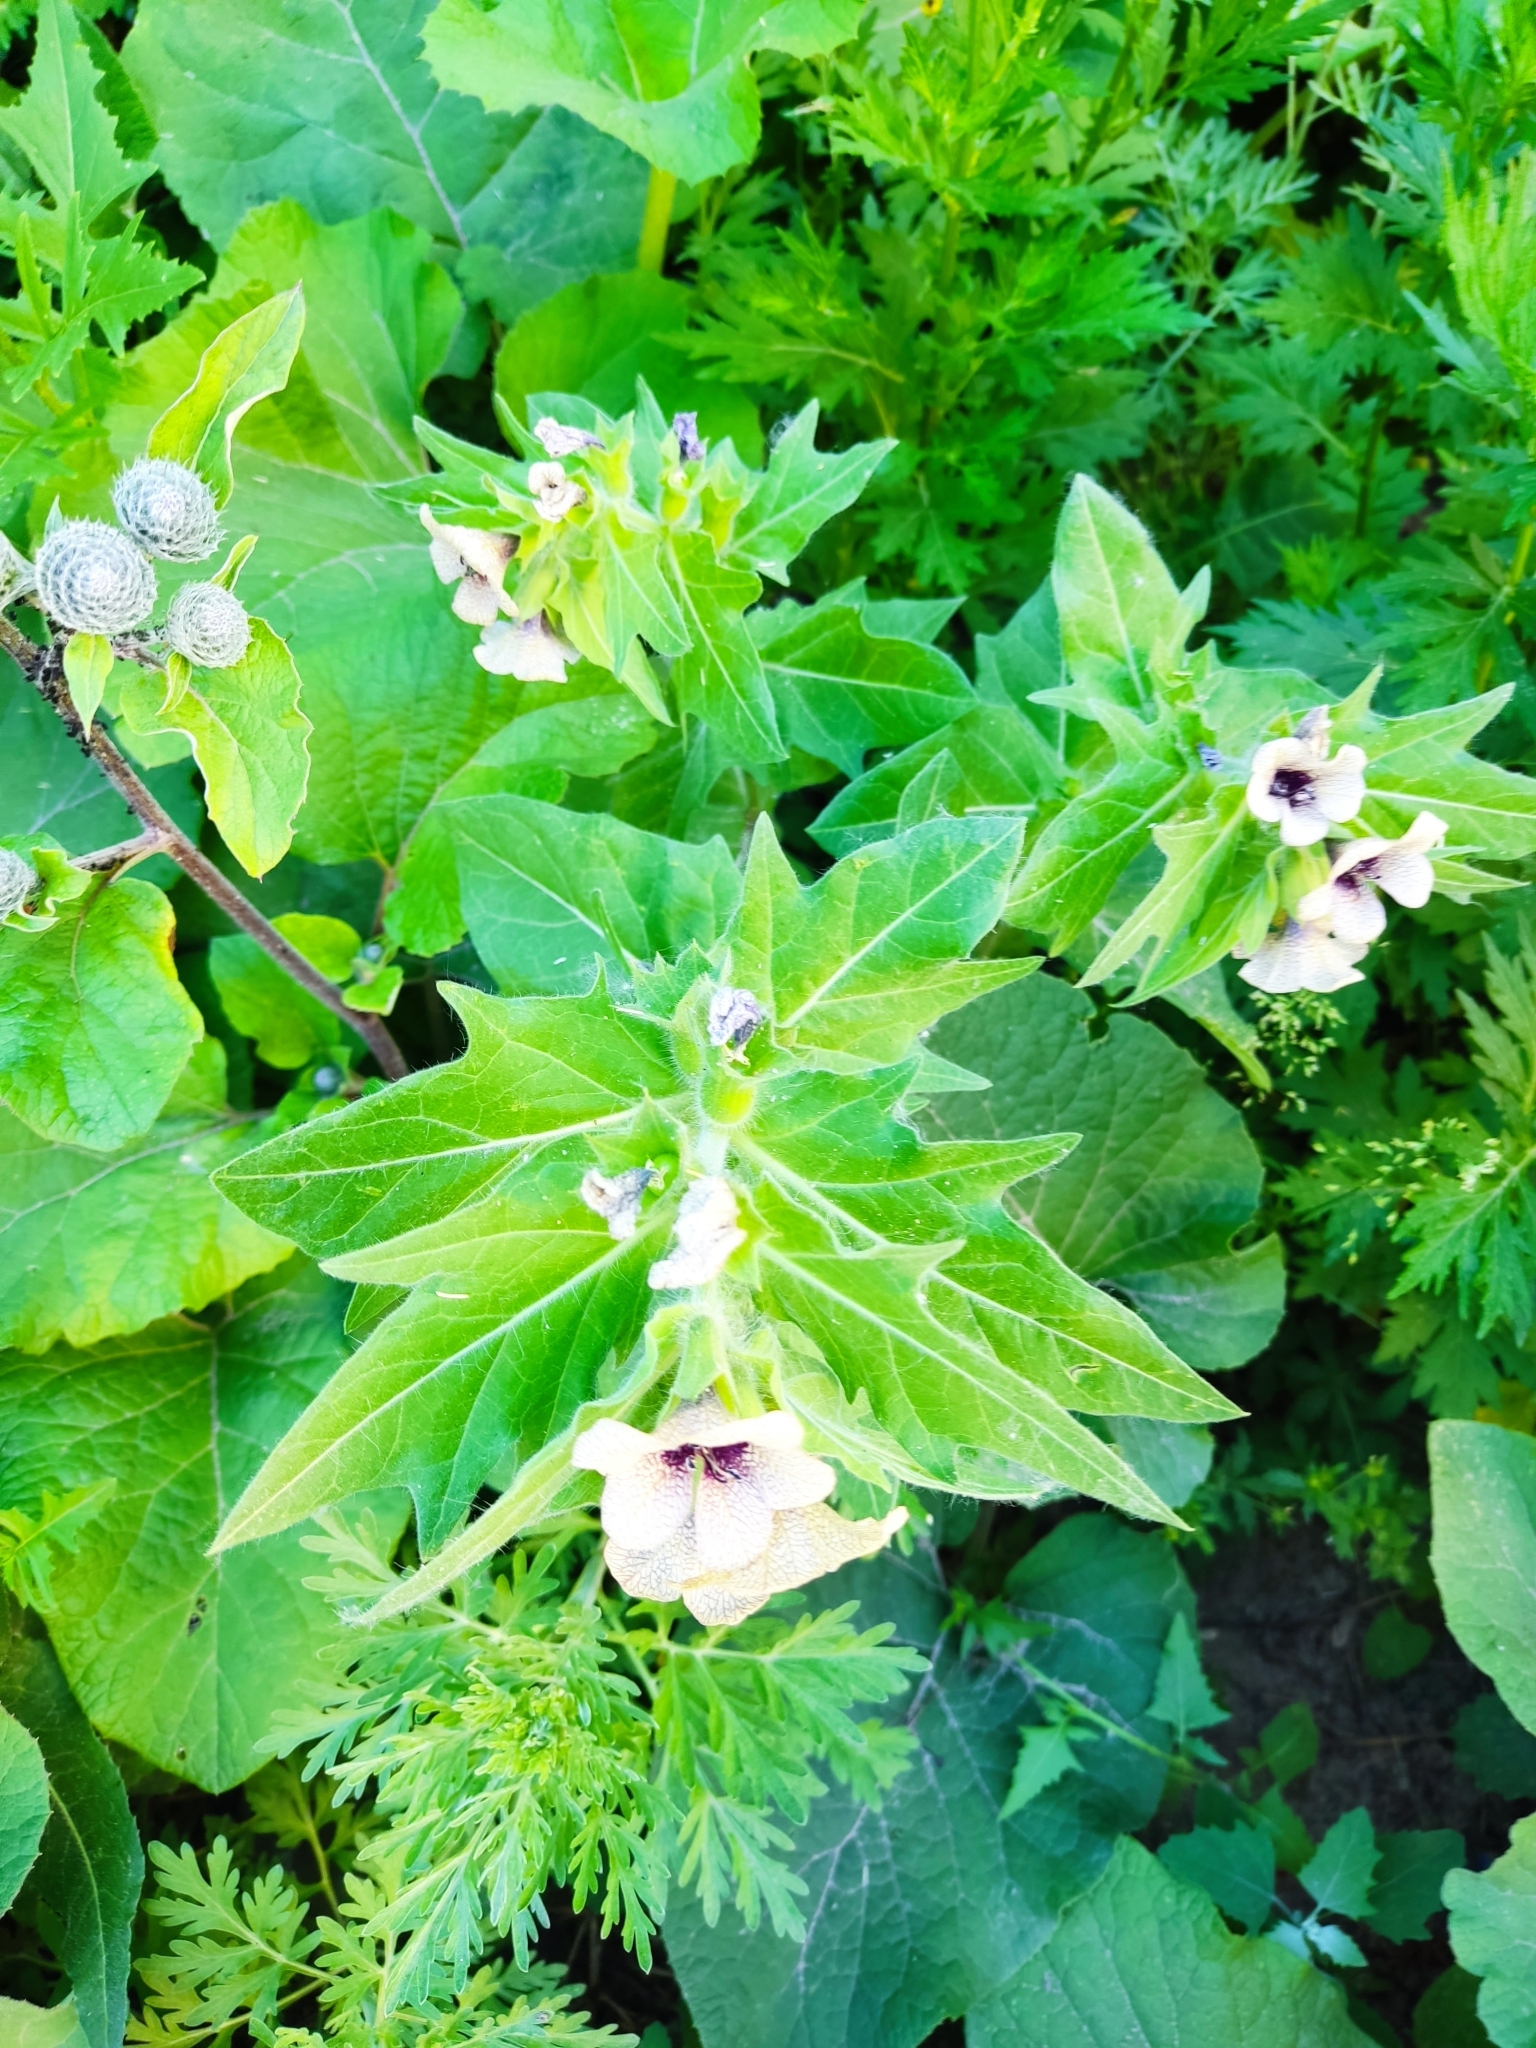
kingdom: Plantae
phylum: Tracheophyta
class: Magnoliopsida
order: Solanales
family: Solanaceae
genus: Hyoscyamus
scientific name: Hyoscyamus niger
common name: Henbane
